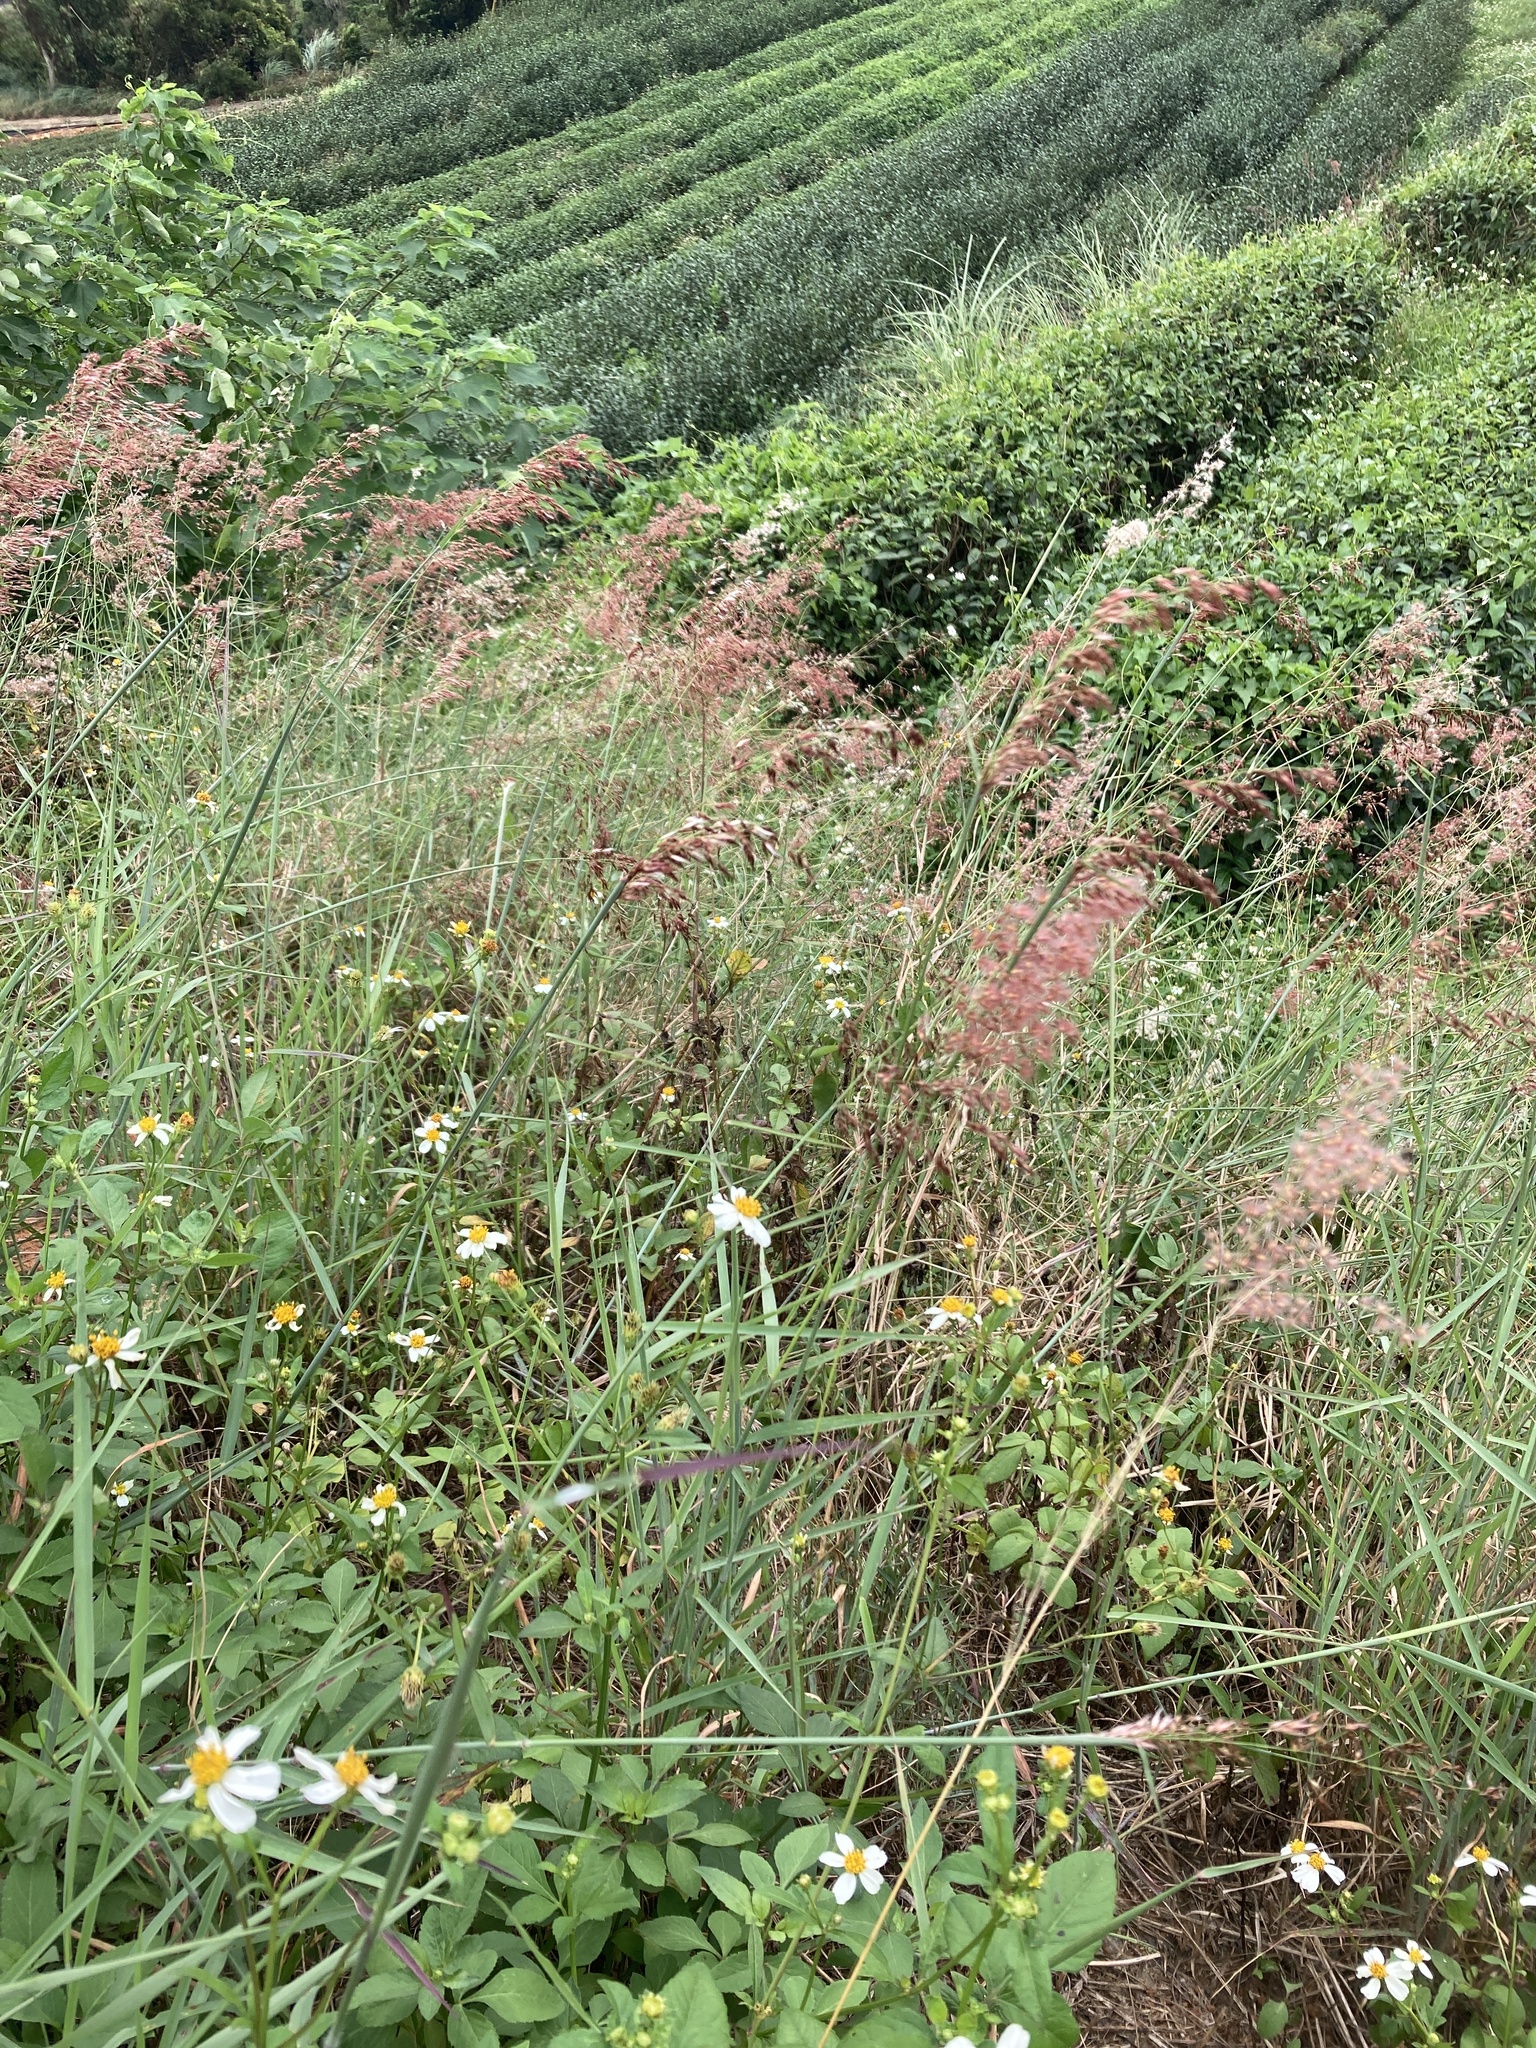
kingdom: Plantae
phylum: Tracheophyta
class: Liliopsida
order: Poales
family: Poaceae
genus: Melinis
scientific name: Melinis repens
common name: Rose natal grass
